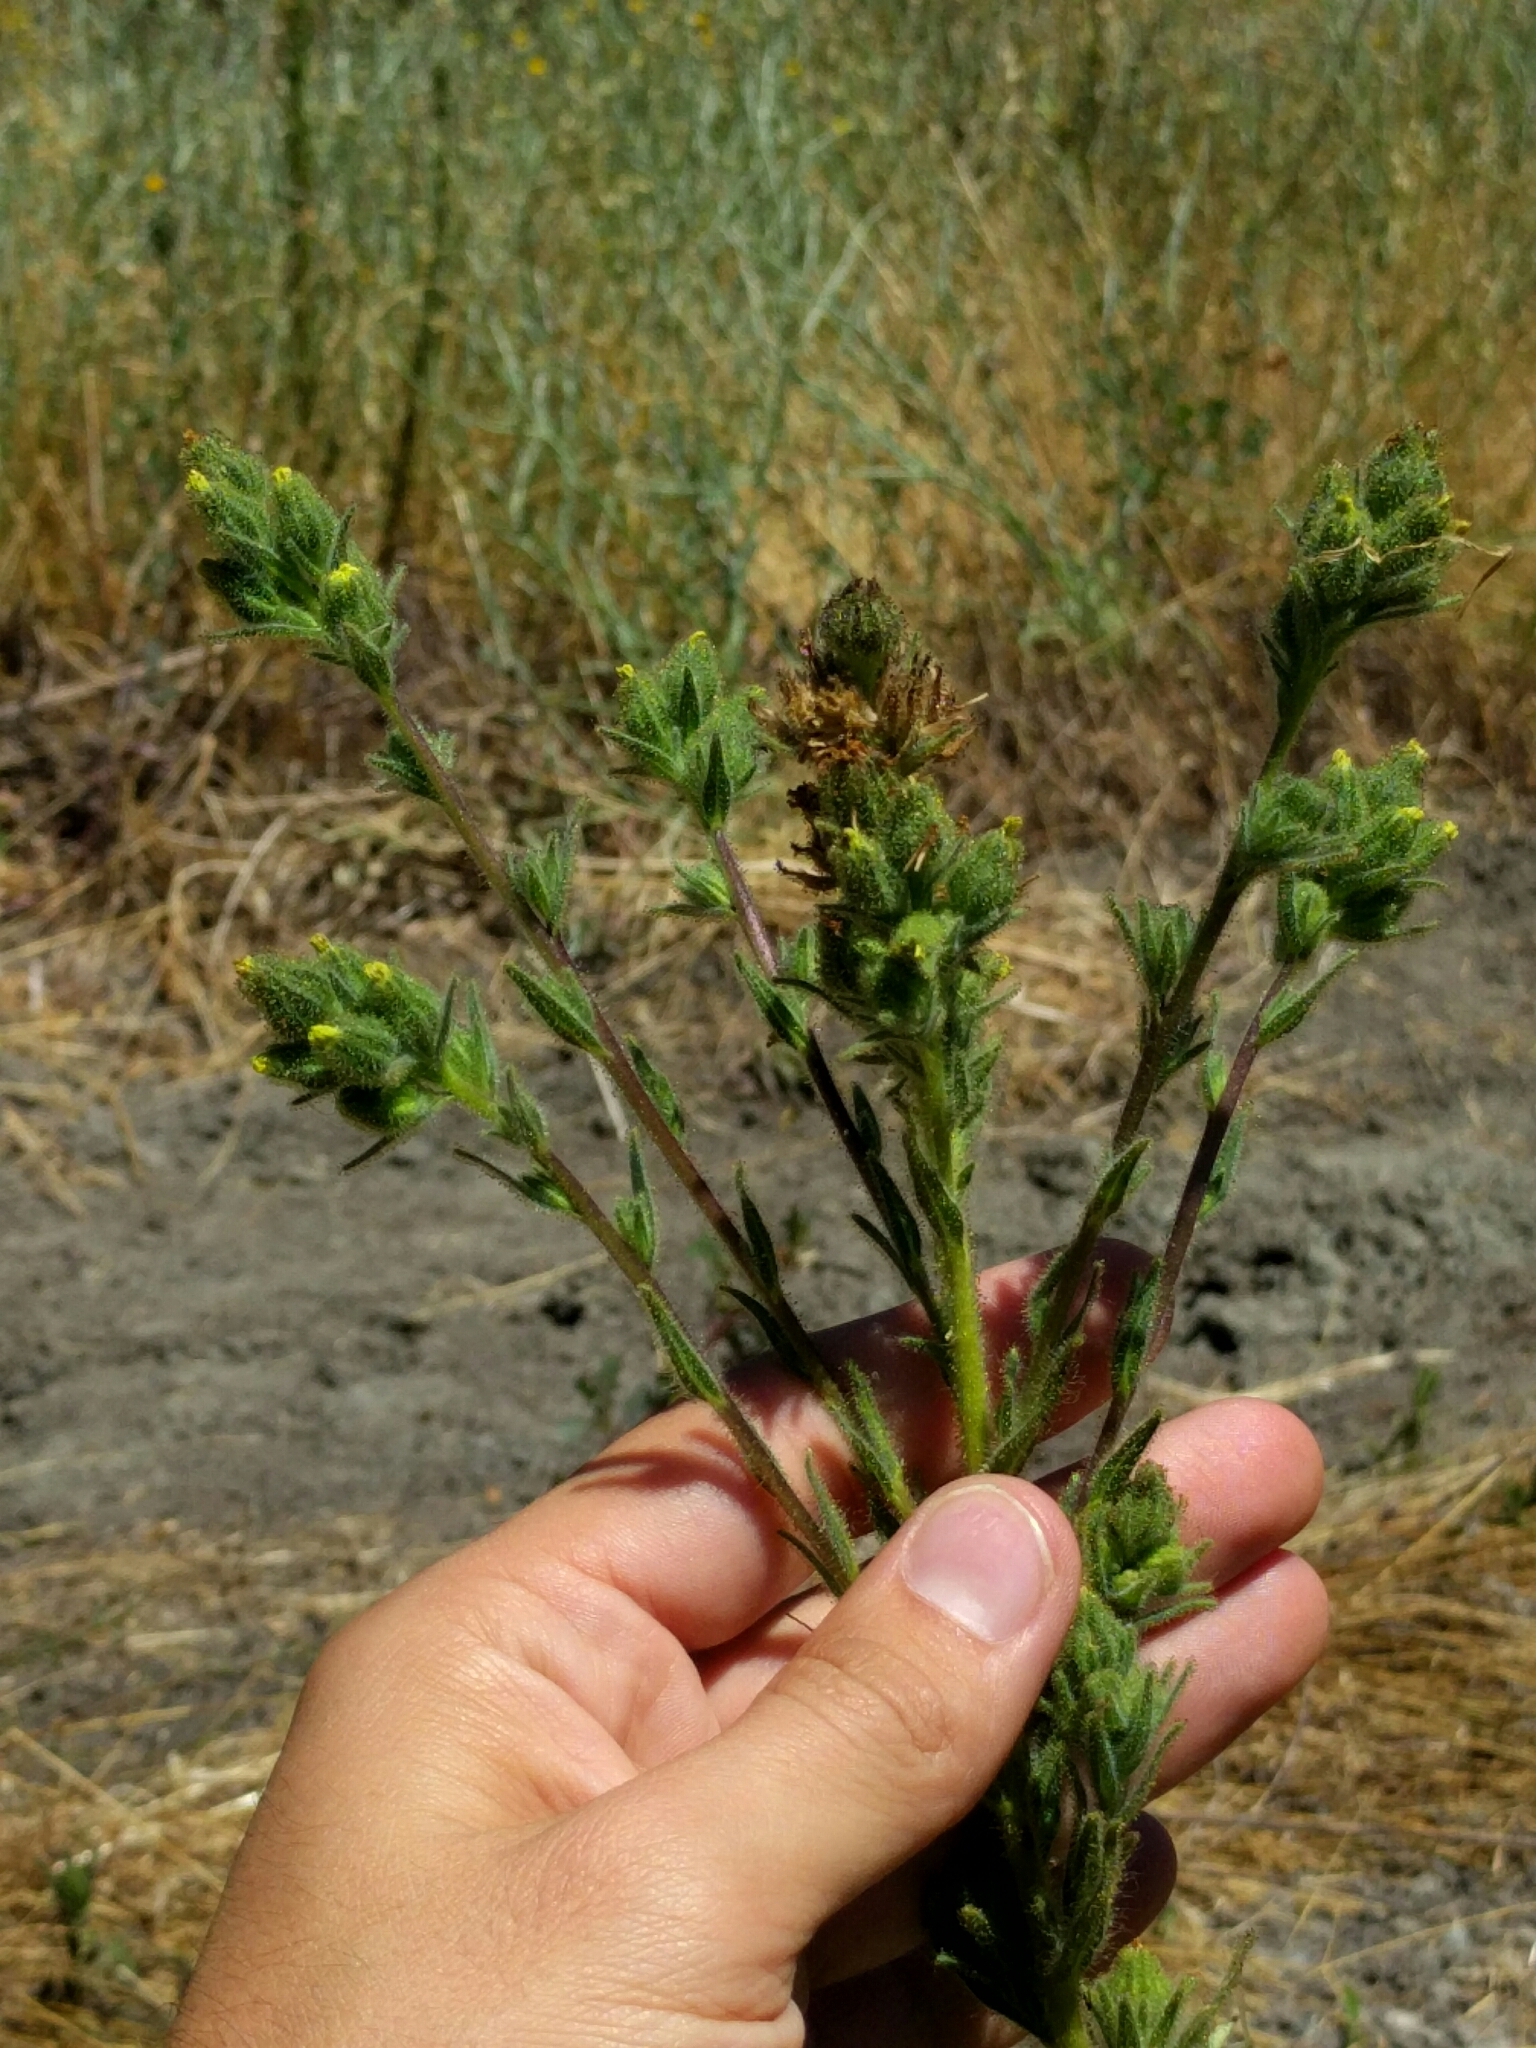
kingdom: Plantae
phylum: Tracheophyta
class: Magnoliopsida
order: Asterales
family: Asteraceae
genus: Madia
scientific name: Madia sativa
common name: Coast tarweed
